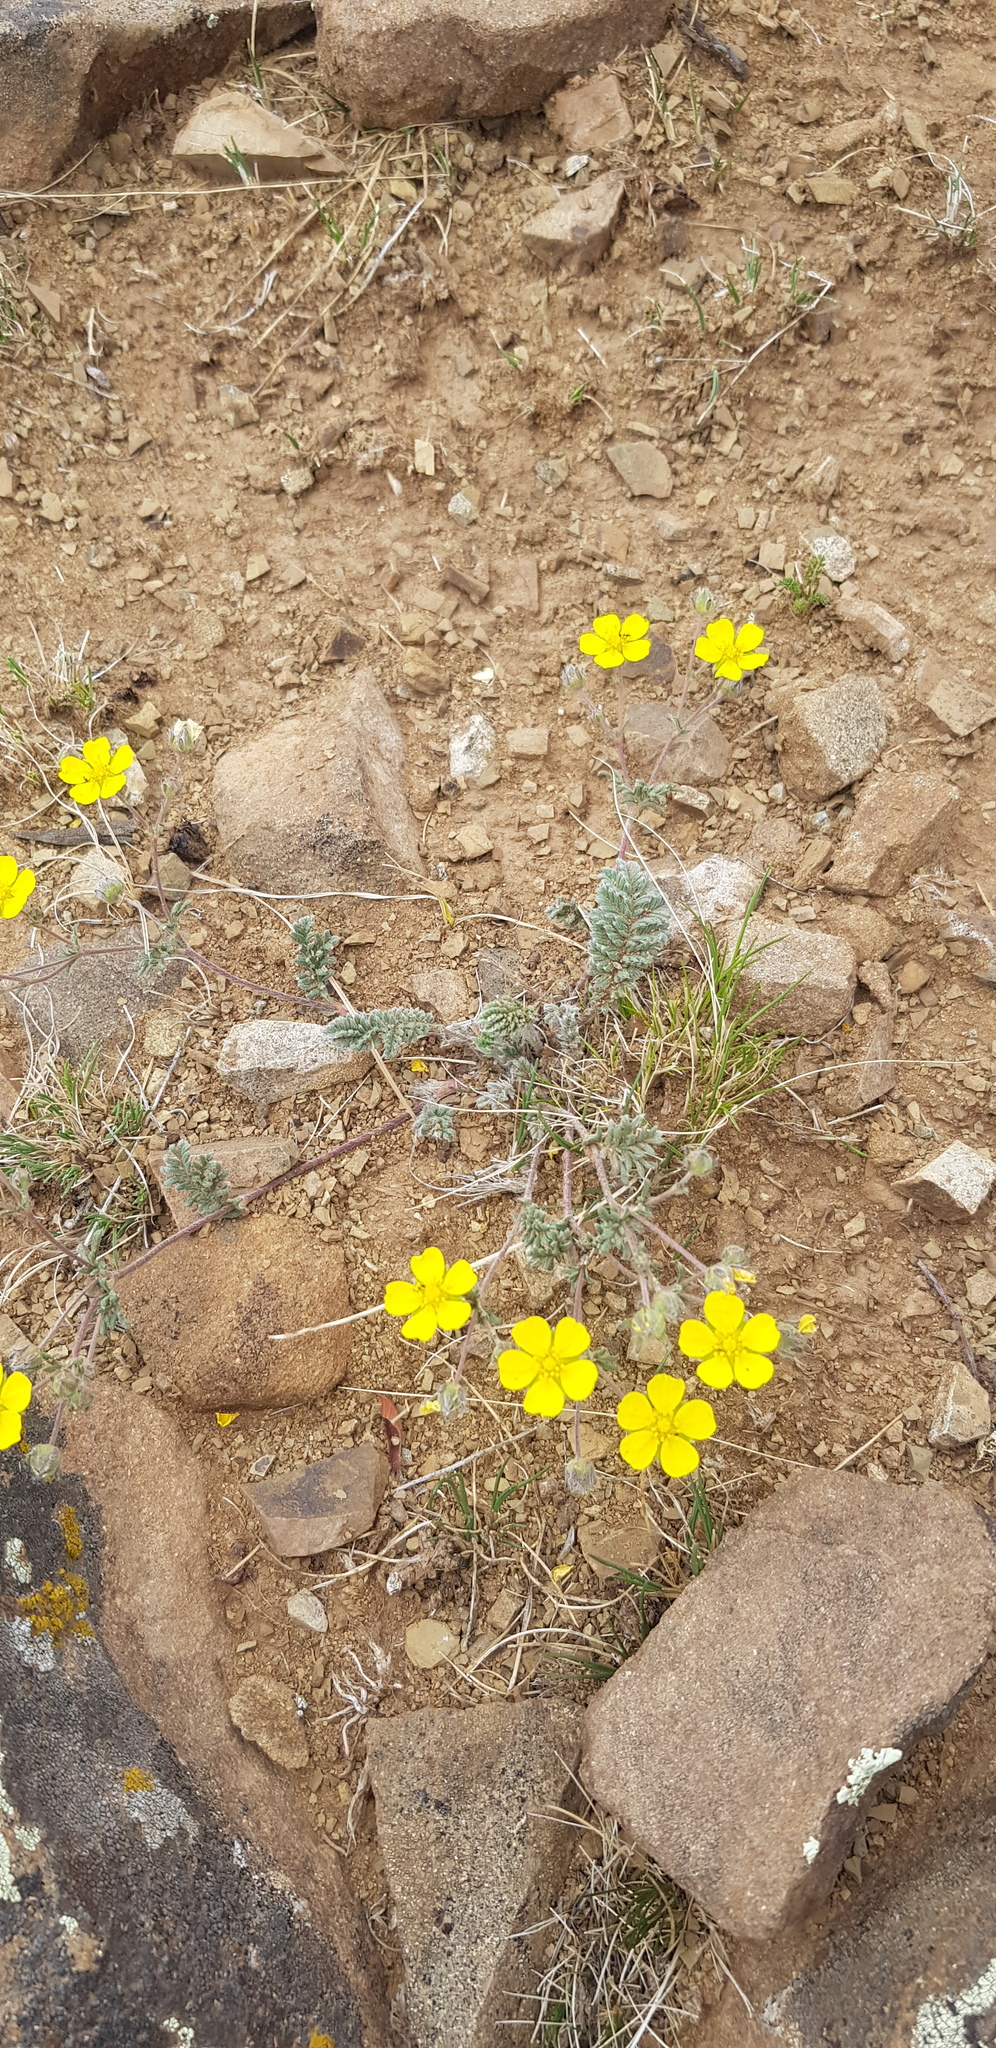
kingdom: Plantae
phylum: Tracheophyta
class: Magnoliopsida
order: Rosales
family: Rosaceae
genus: Potentilla
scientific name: Potentilla sericea
